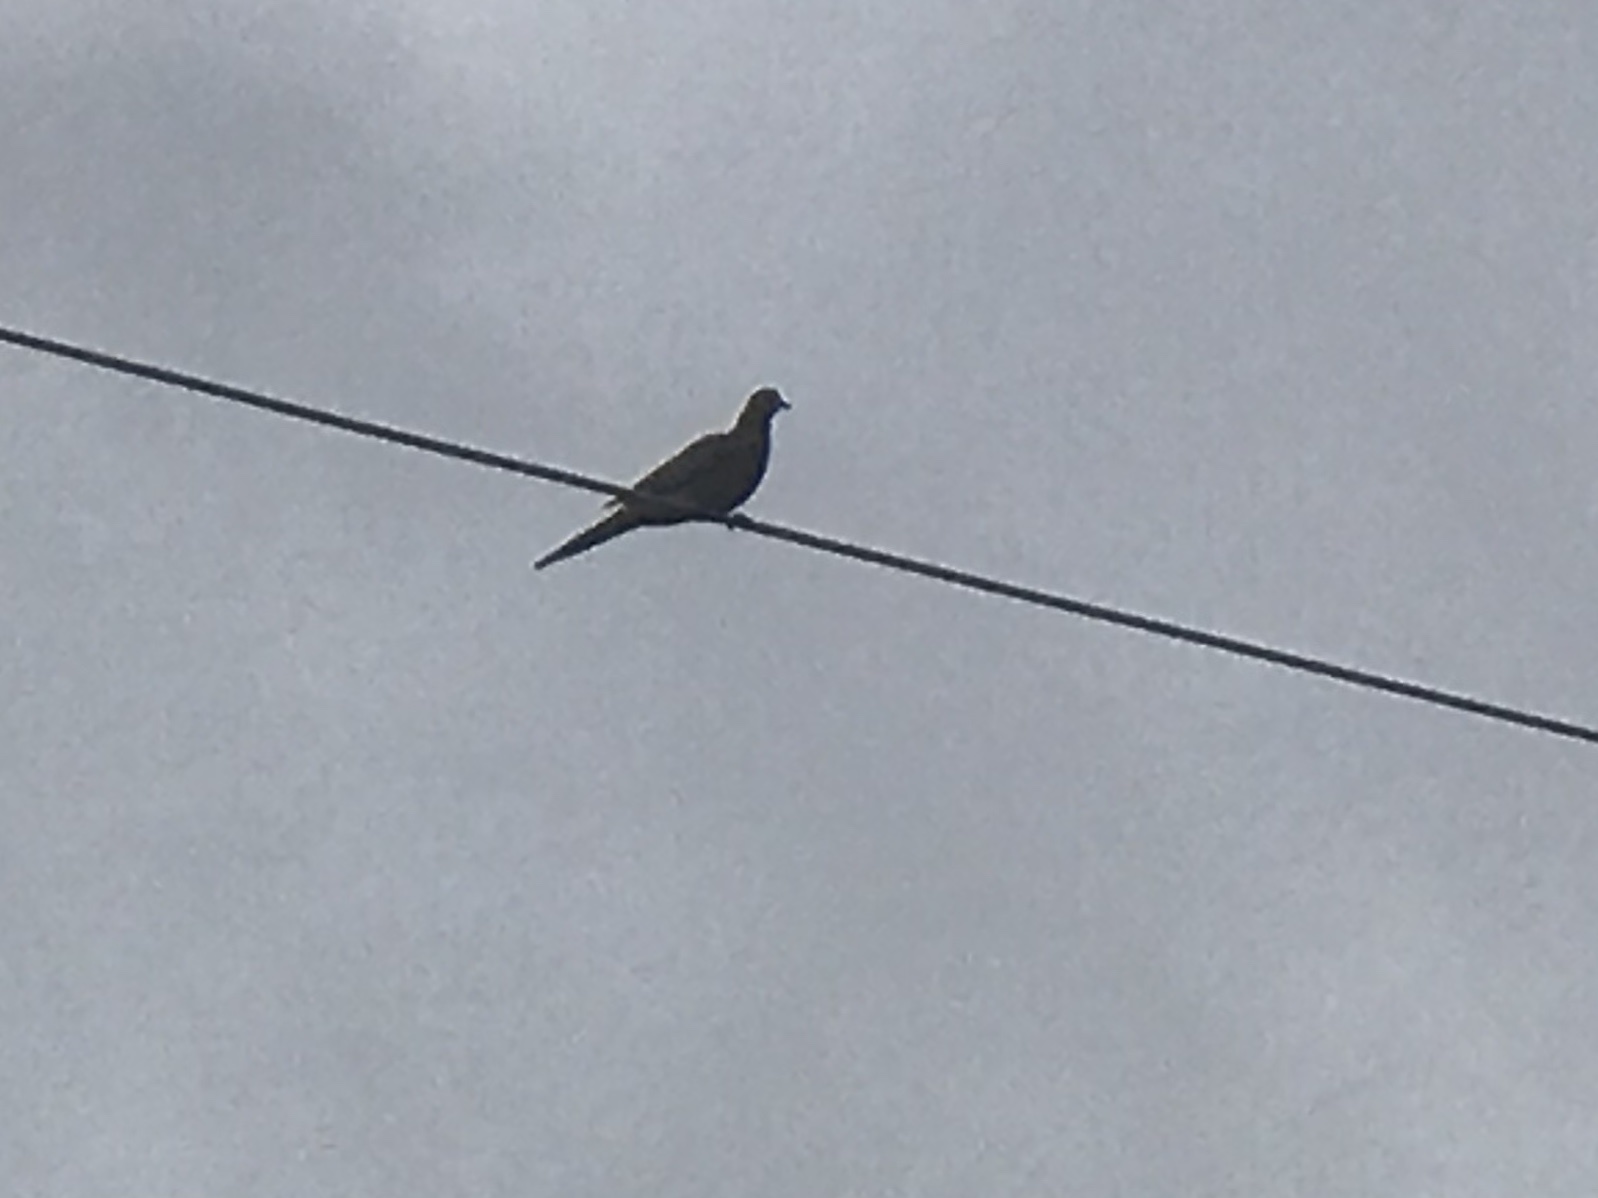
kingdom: Animalia
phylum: Chordata
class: Aves
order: Columbiformes
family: Columbidae
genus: Zenaida
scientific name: Zenaida macroura
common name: Mourning dove
